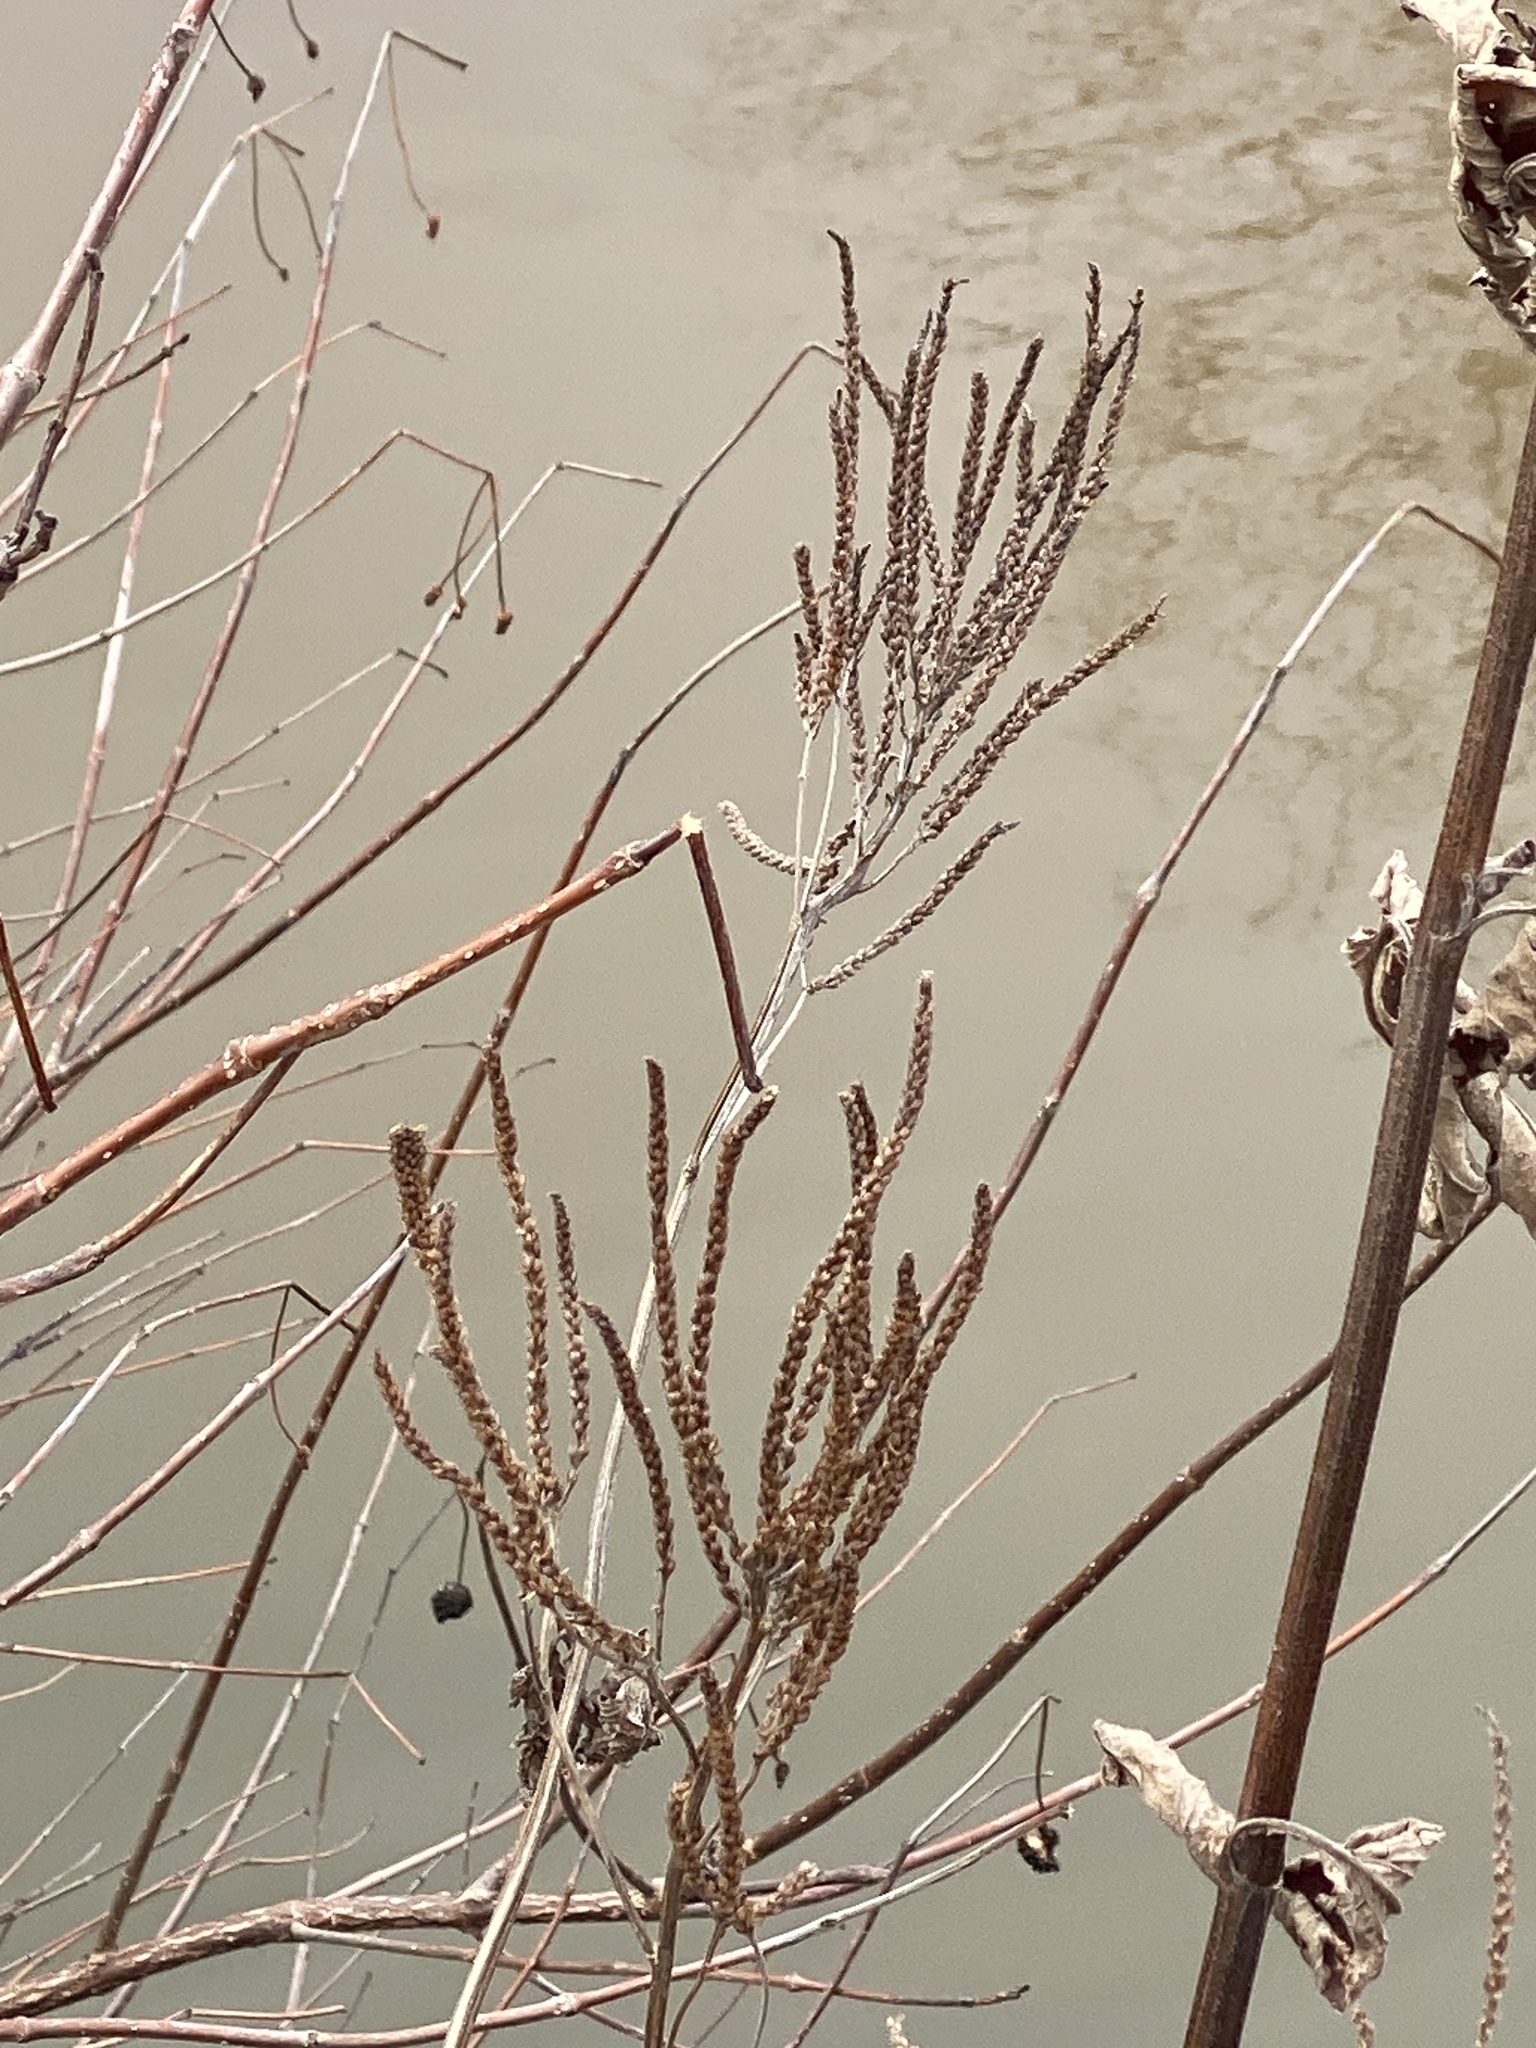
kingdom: Plantae
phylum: Tracheophyta
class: Magnoliopsida
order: Lamiales
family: Verbenaceae
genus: Verbena
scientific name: Verbena hastata
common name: American blue vervain
